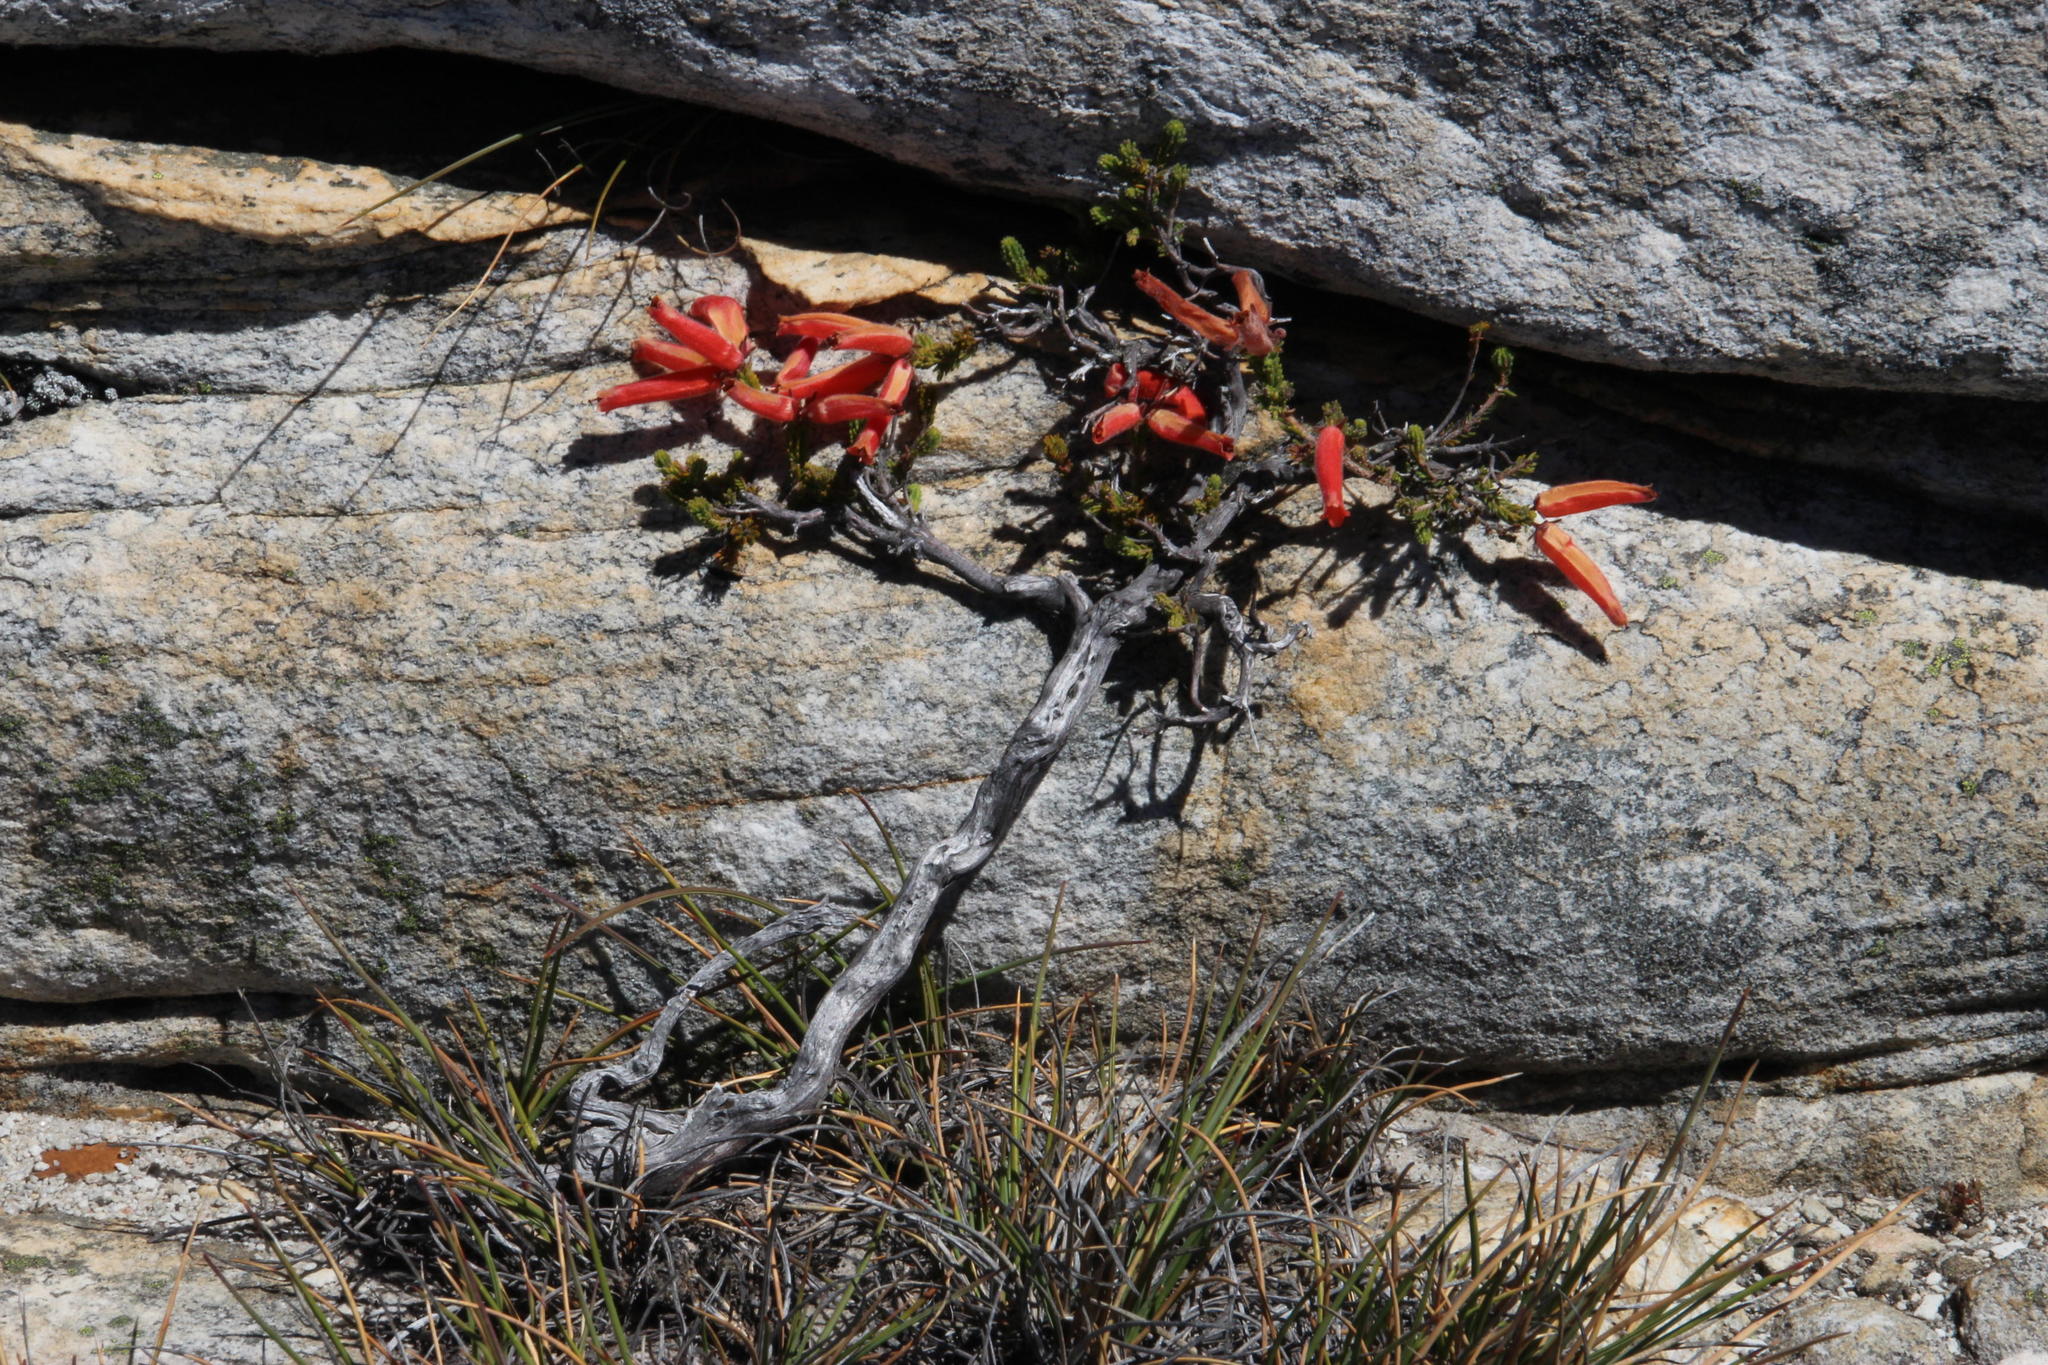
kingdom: Plantae
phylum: Tracheophyta
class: Magnoliopsida
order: Ericales
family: Ericaceae
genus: Erica
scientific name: Erica tumida
